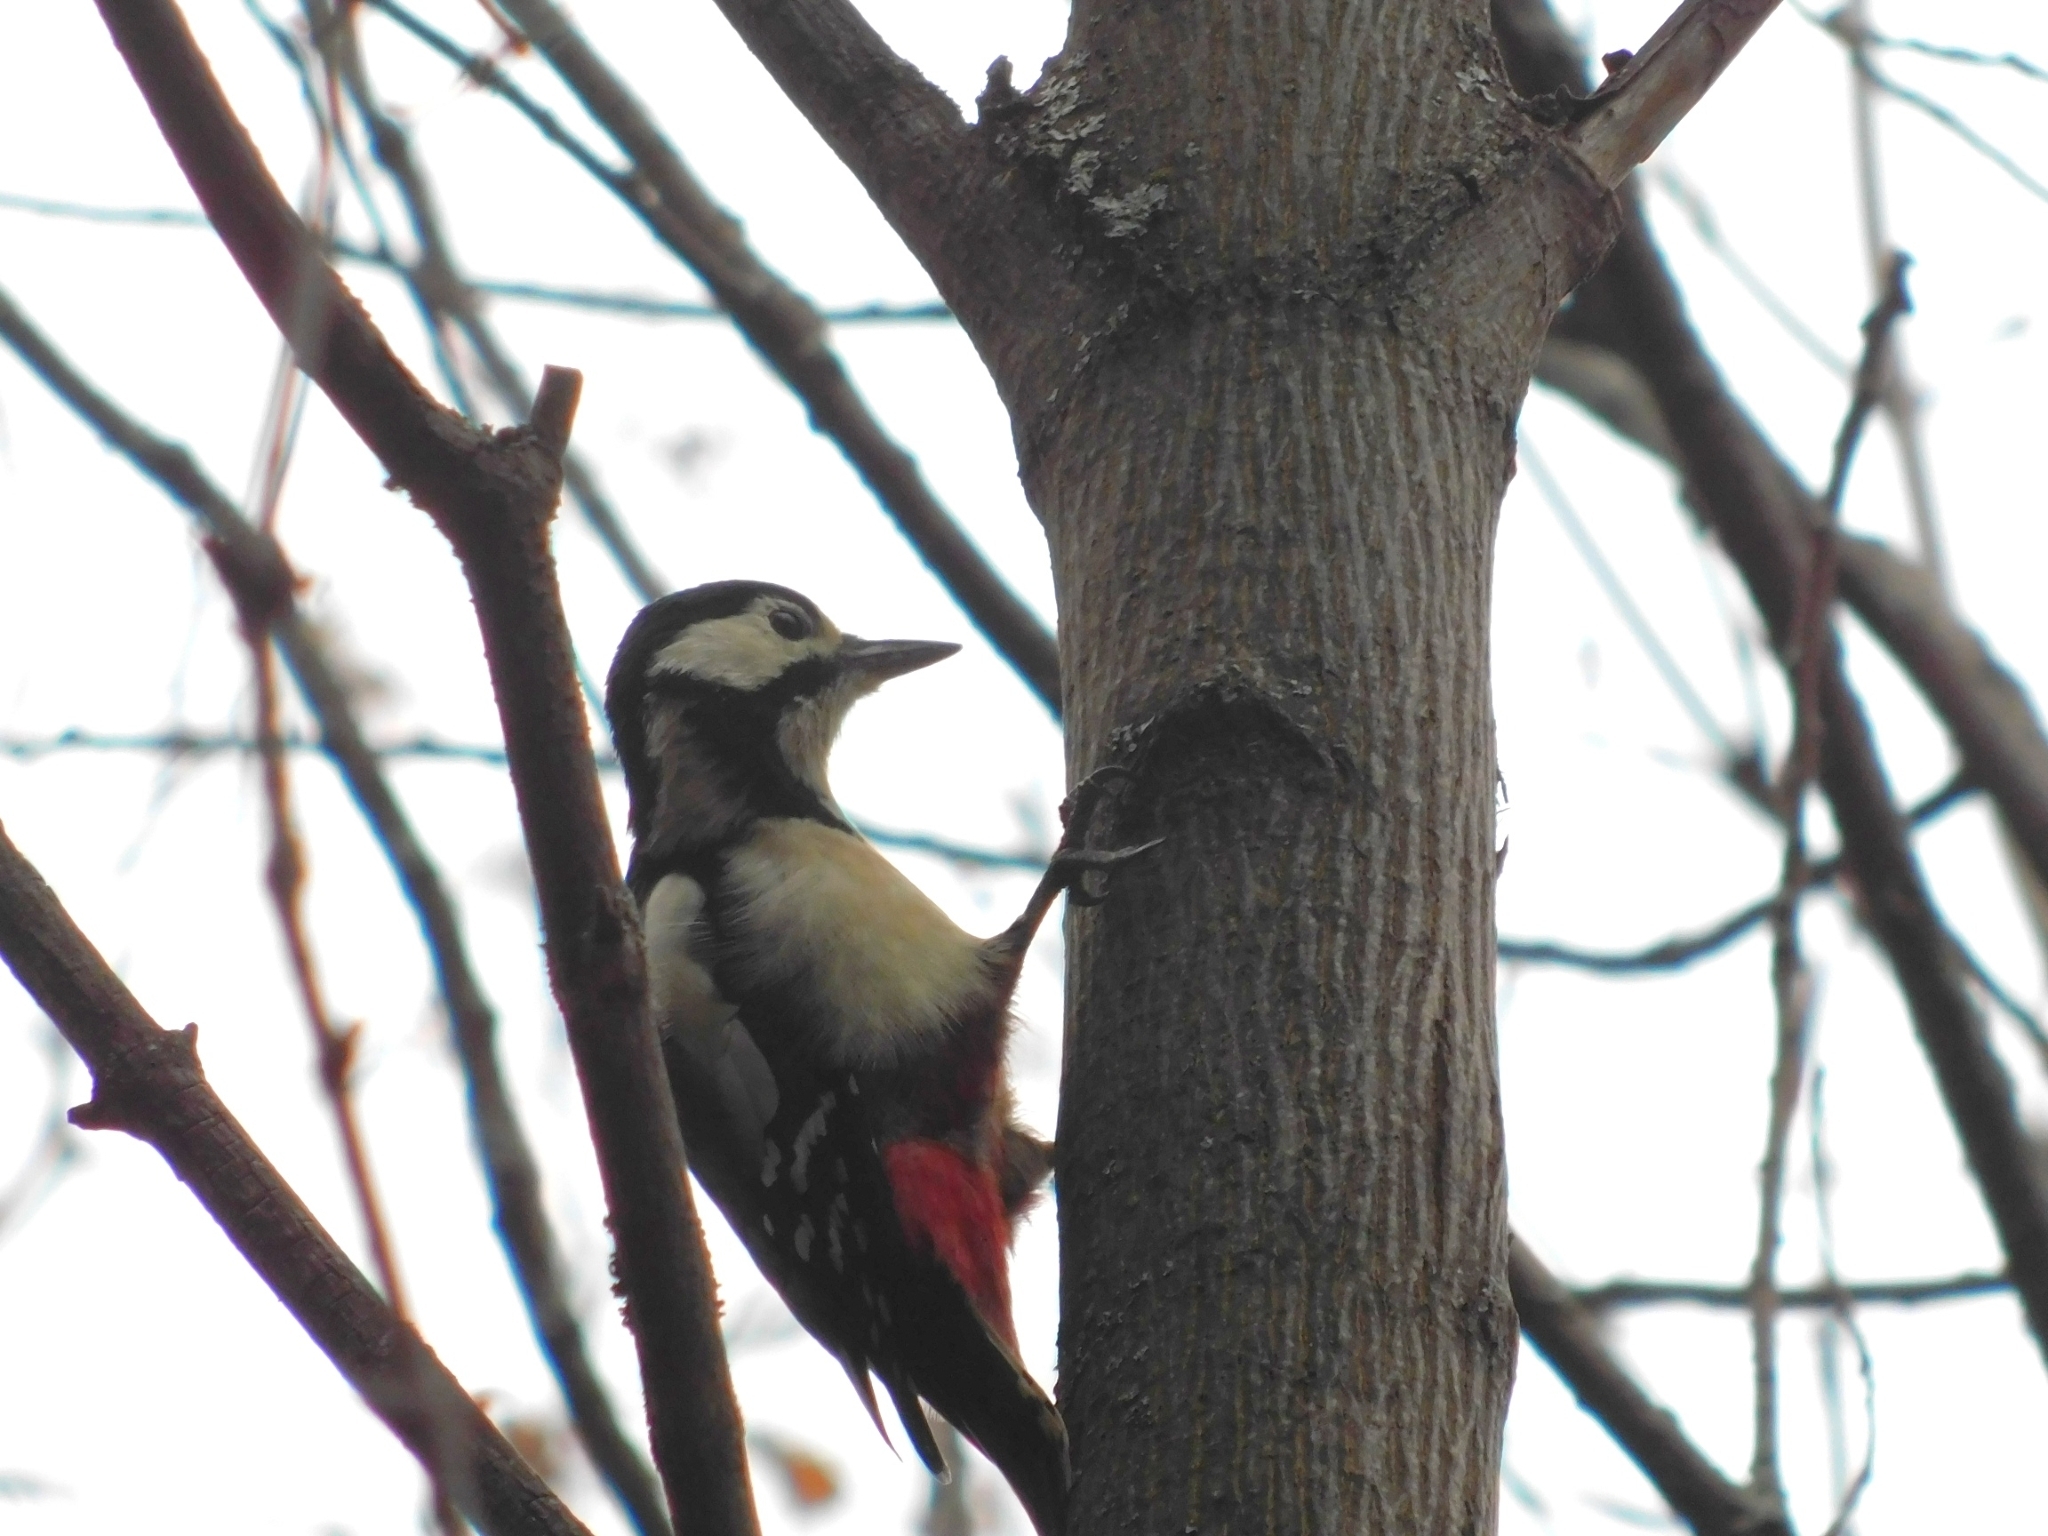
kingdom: Animalia
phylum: Chordata
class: Aves
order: Piciformes
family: Picidae
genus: Dendrocopos
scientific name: Dendrocopos major
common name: Great spotted woodpecker
